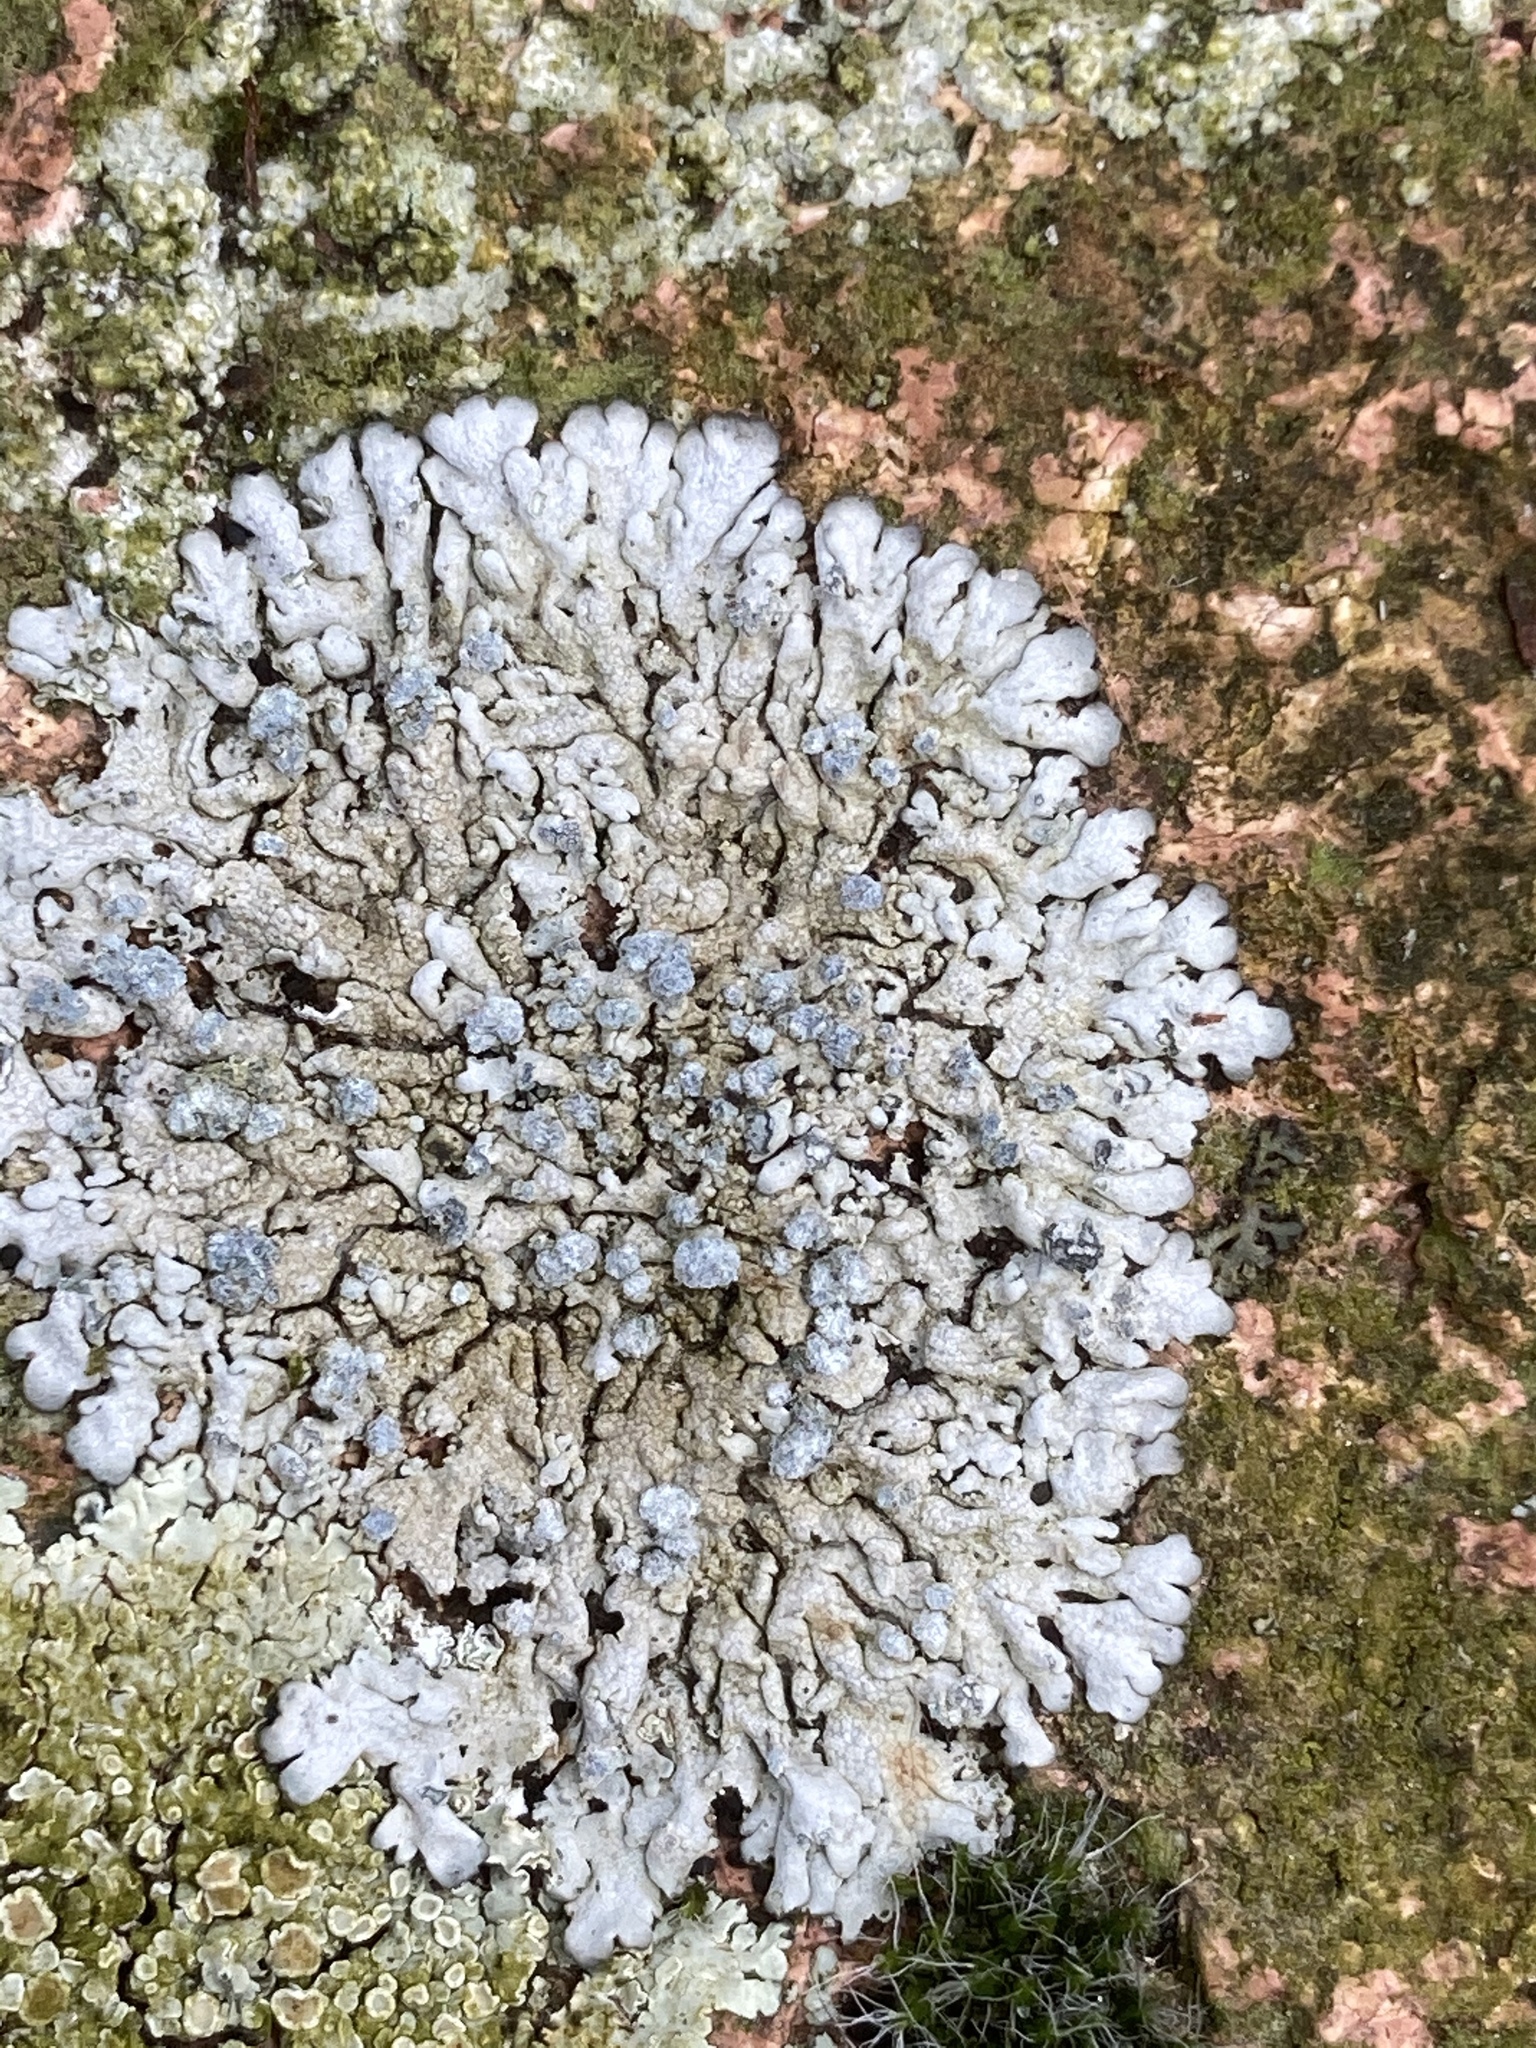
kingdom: Fungi
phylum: Ascomycota
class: Lecanoromycetes
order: Caliciales
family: Physciaceae
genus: Physcia
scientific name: Physcia caesia
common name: Blue-gray rosette lichen
